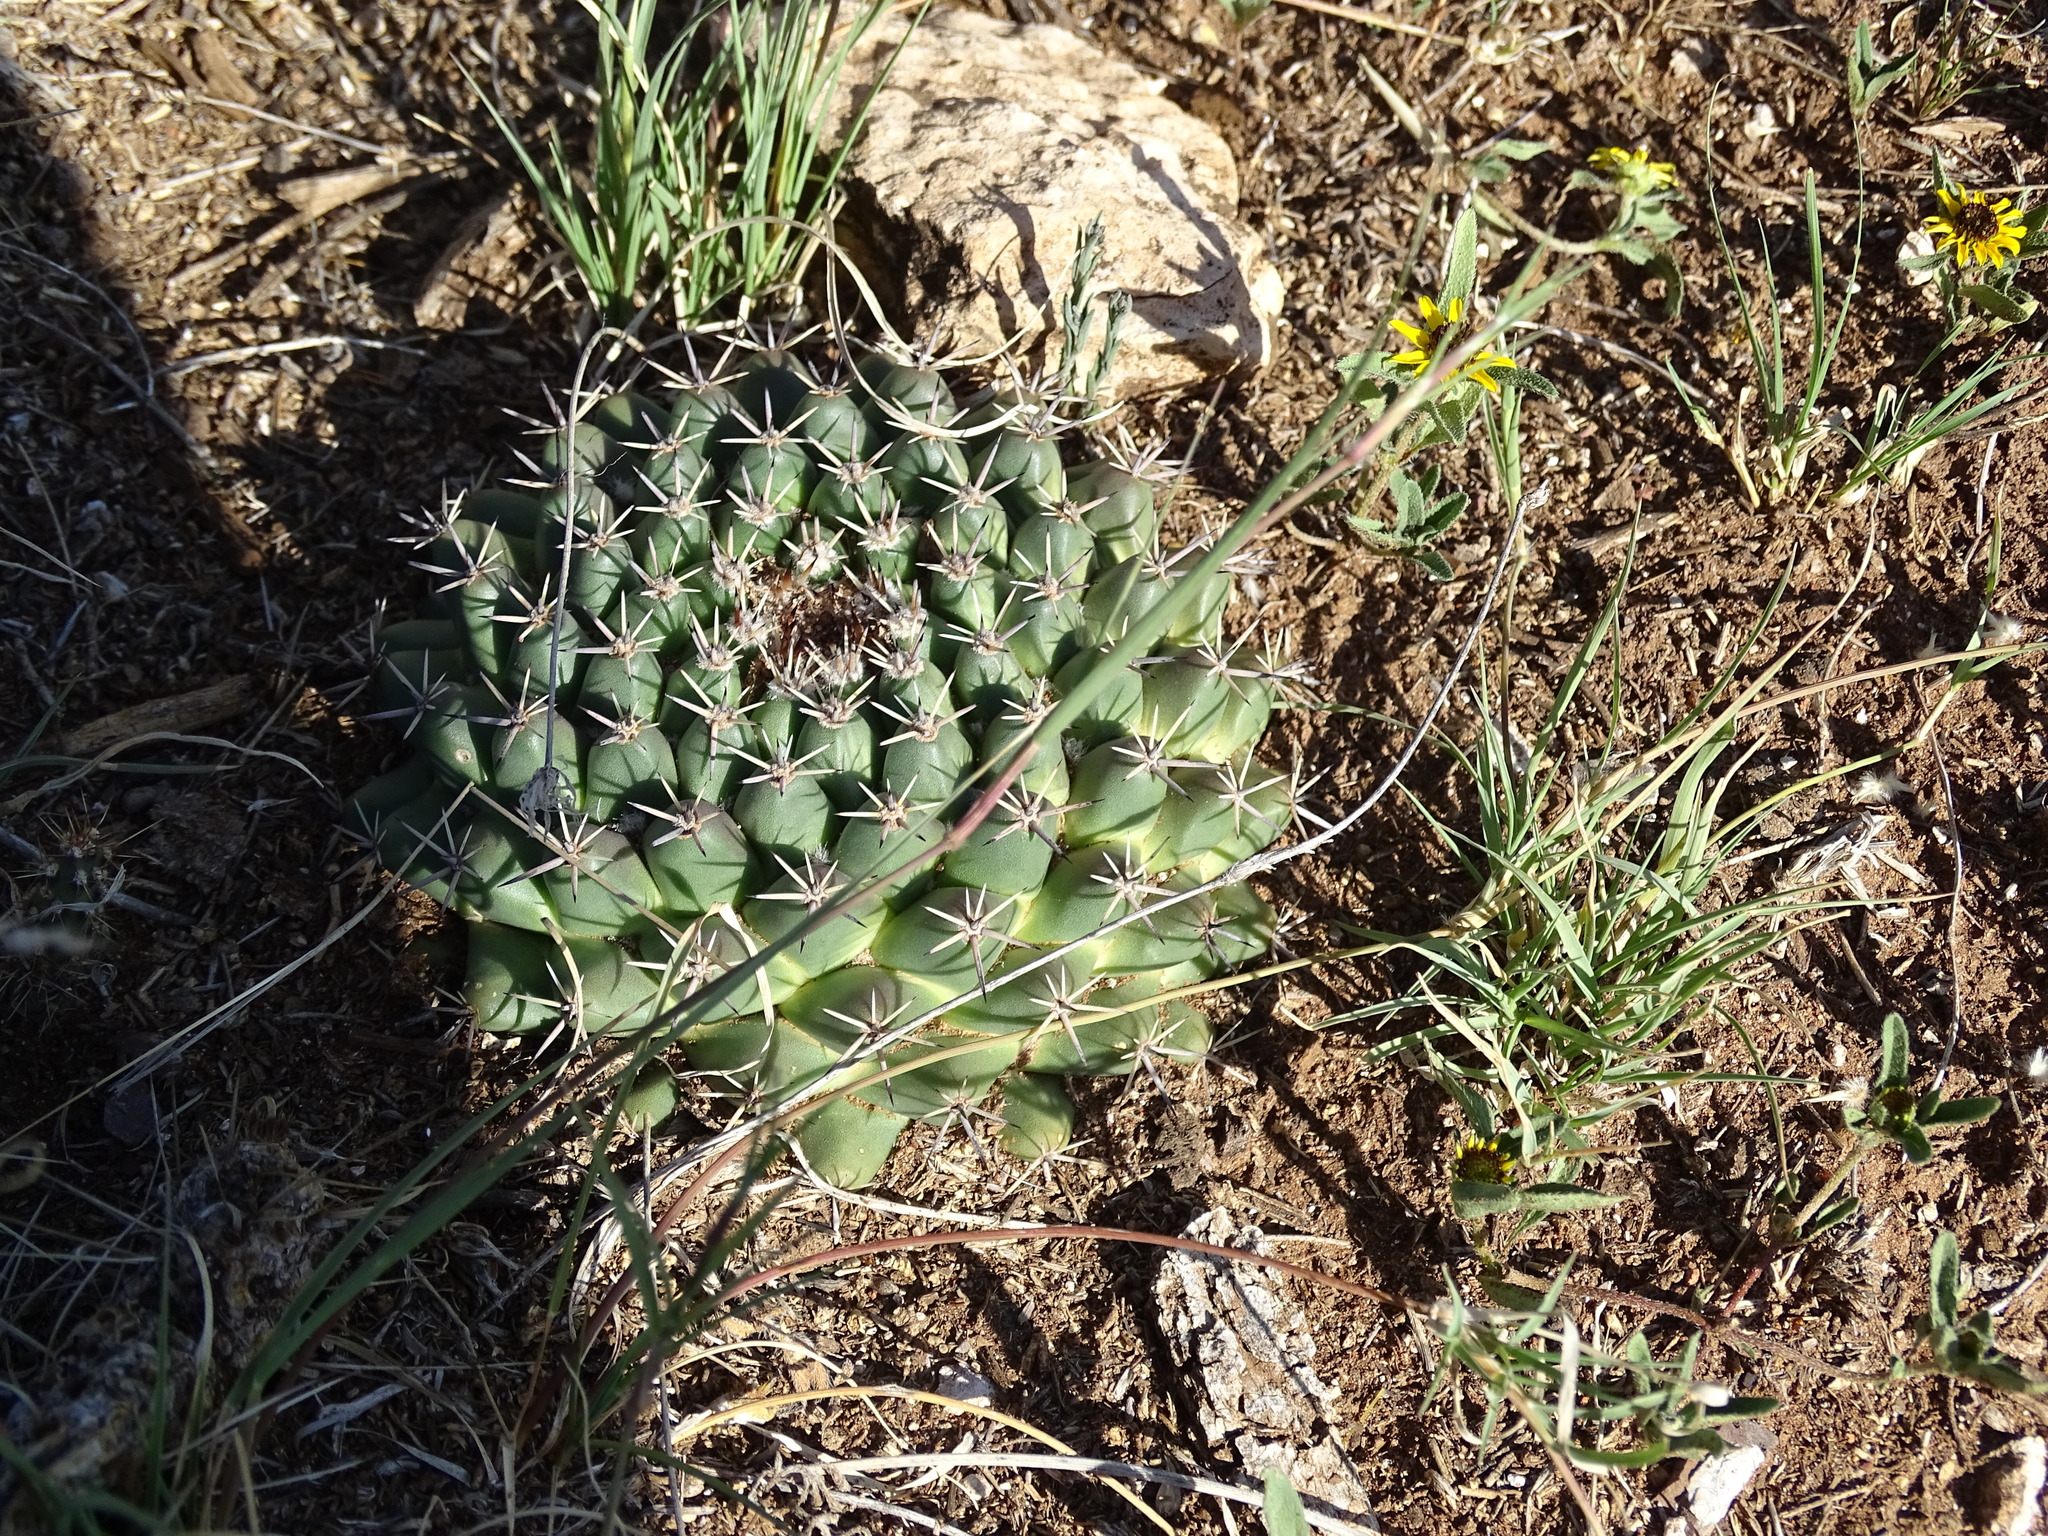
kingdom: Plantae
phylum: Tracheophyta
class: Magnoliopsida
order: Caryophyllales
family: Cactaceae
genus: Mammillaria
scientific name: Mammillaria uncinata
